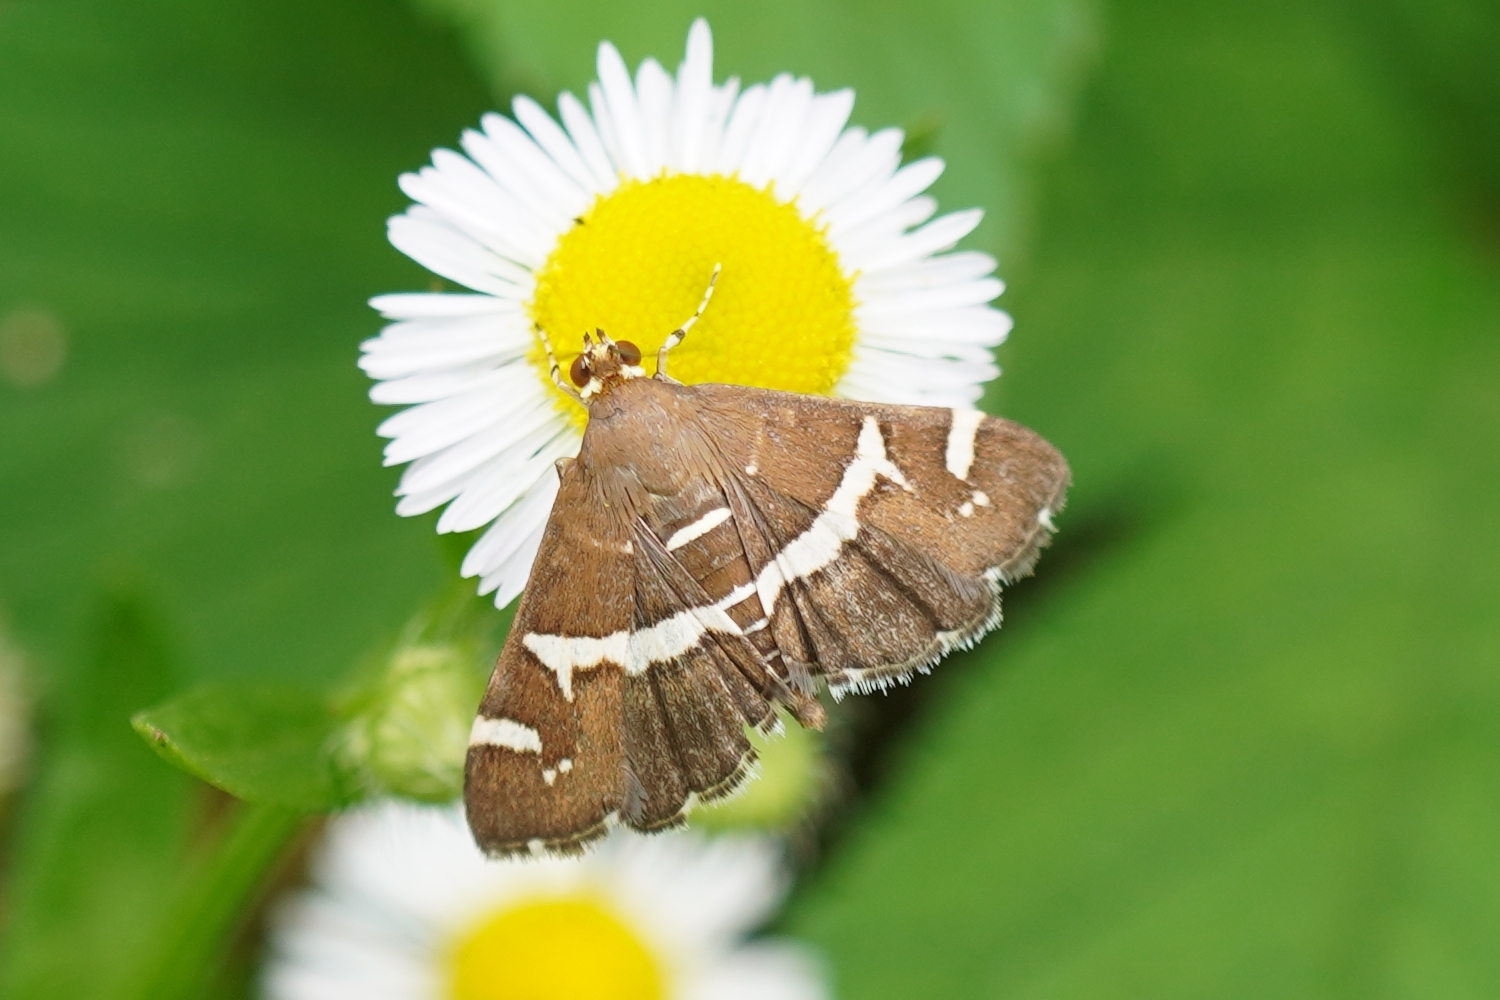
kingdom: Animalia
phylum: Arthropoda
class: Insecta
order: Lepidoptera
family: Crambidae
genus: Spoladea
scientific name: Spoladea recurvalis
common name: Beet webworm moth
